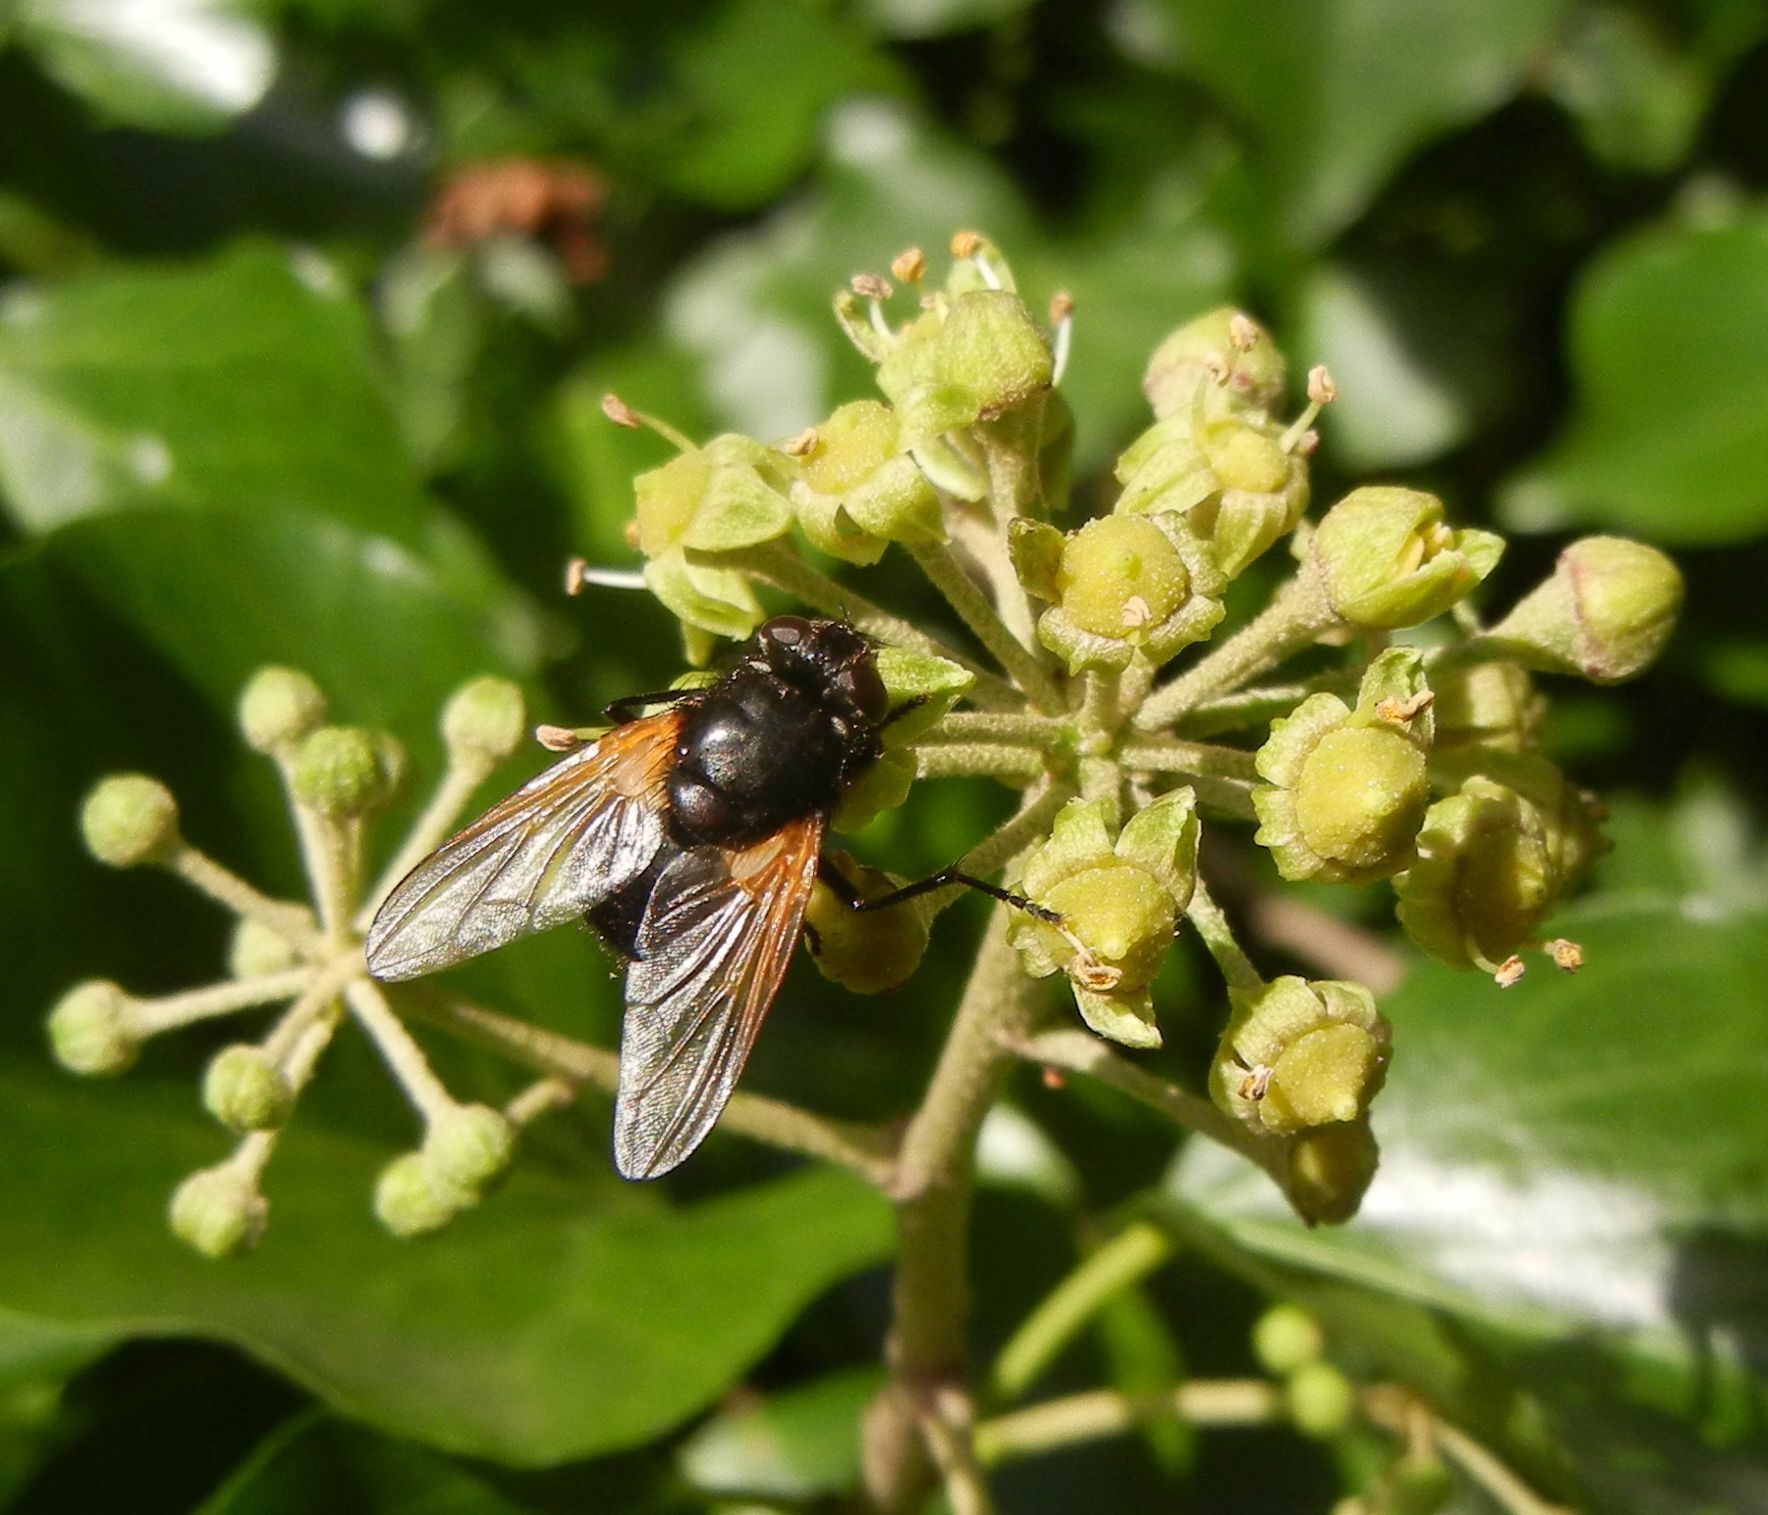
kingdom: Animalia
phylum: Arthropoda
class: Insecta
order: Diptera
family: Muscidae
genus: Mesembrina
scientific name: Mesembrina meridiana
